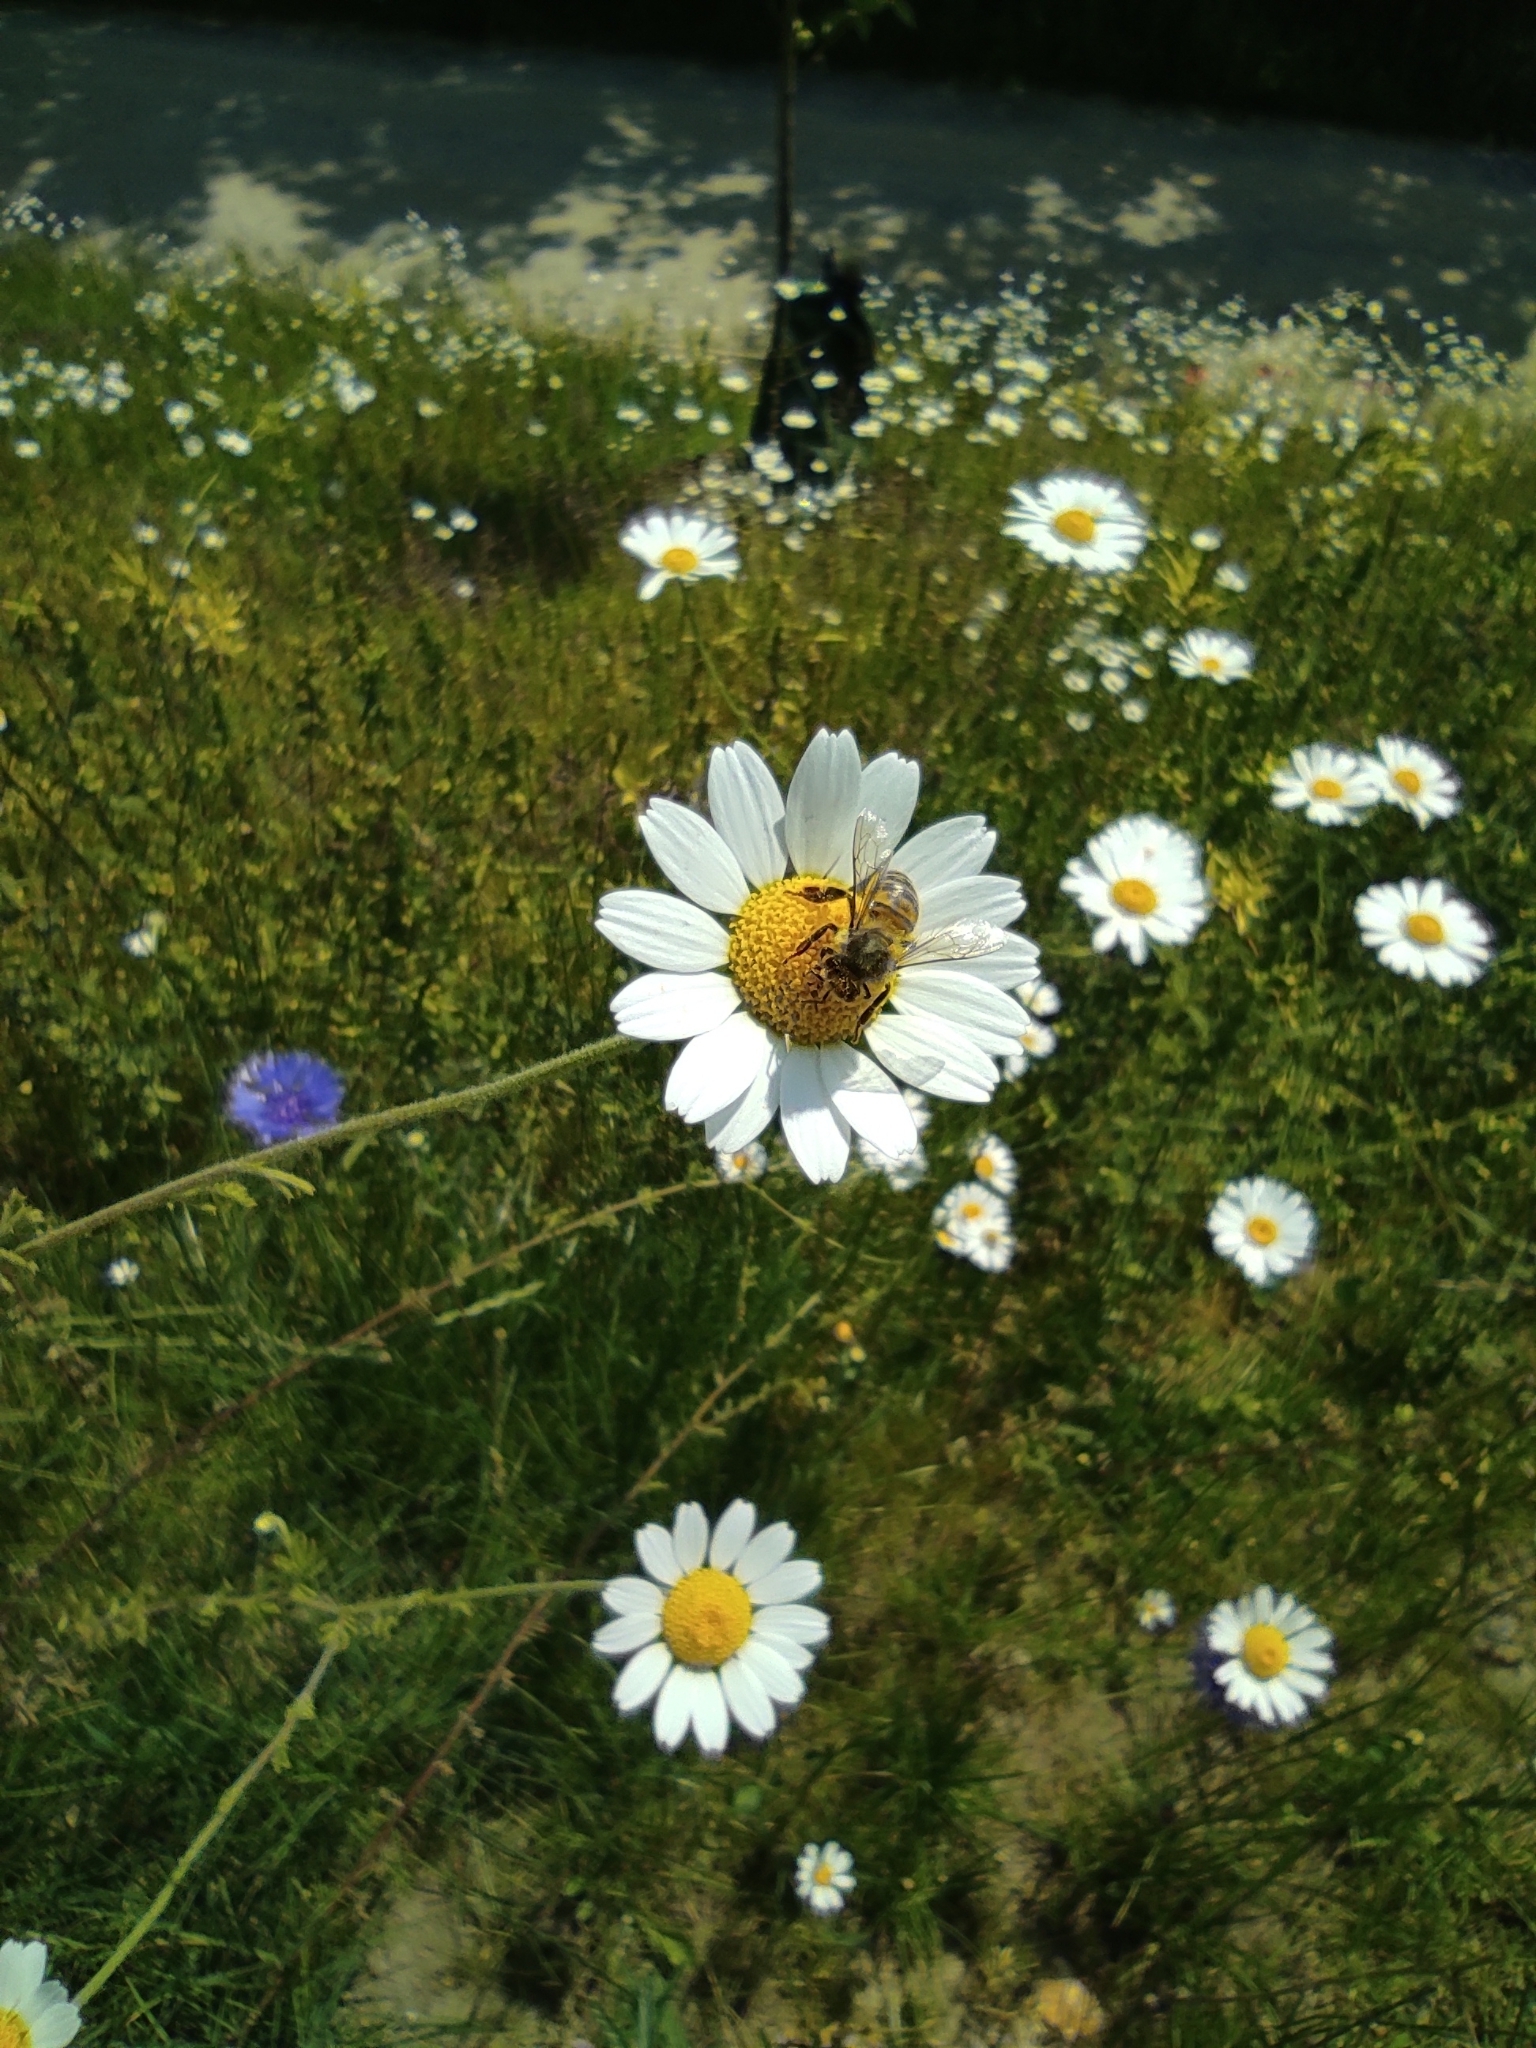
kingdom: Animalia
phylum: Arthropoda
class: Insecta
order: Hymenoptera
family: Apidae
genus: Apis
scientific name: Apis mellifera
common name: Honey bee
